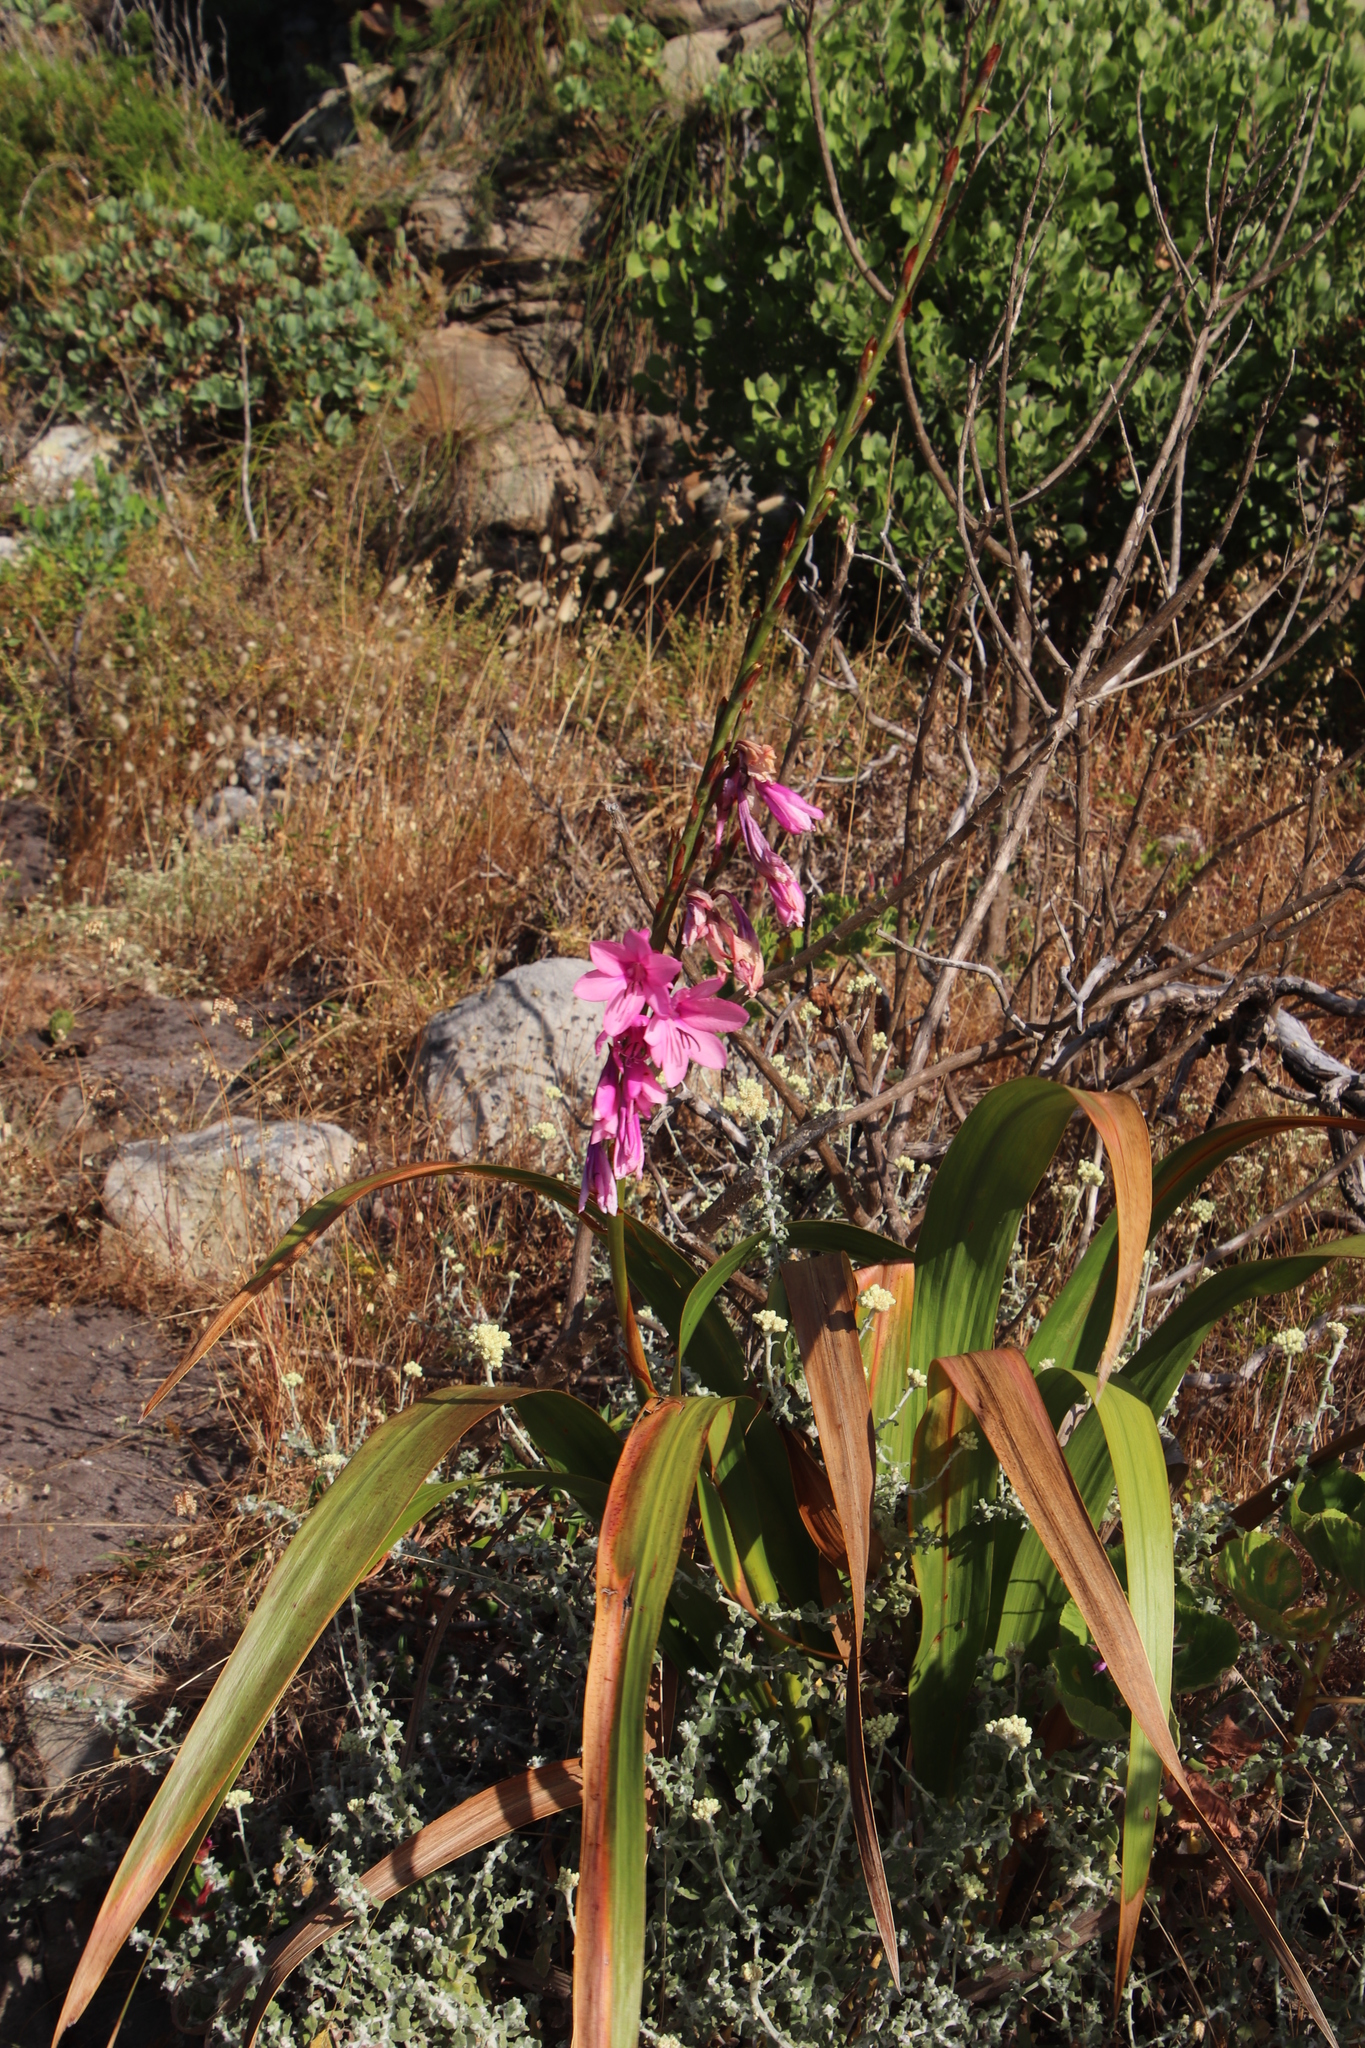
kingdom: Plantae
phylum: Tracheophyta
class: Liliopsida
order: Asparagales
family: Iridaceae
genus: Watsonia
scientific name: Watsonia borbonica
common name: Bugle-lily
